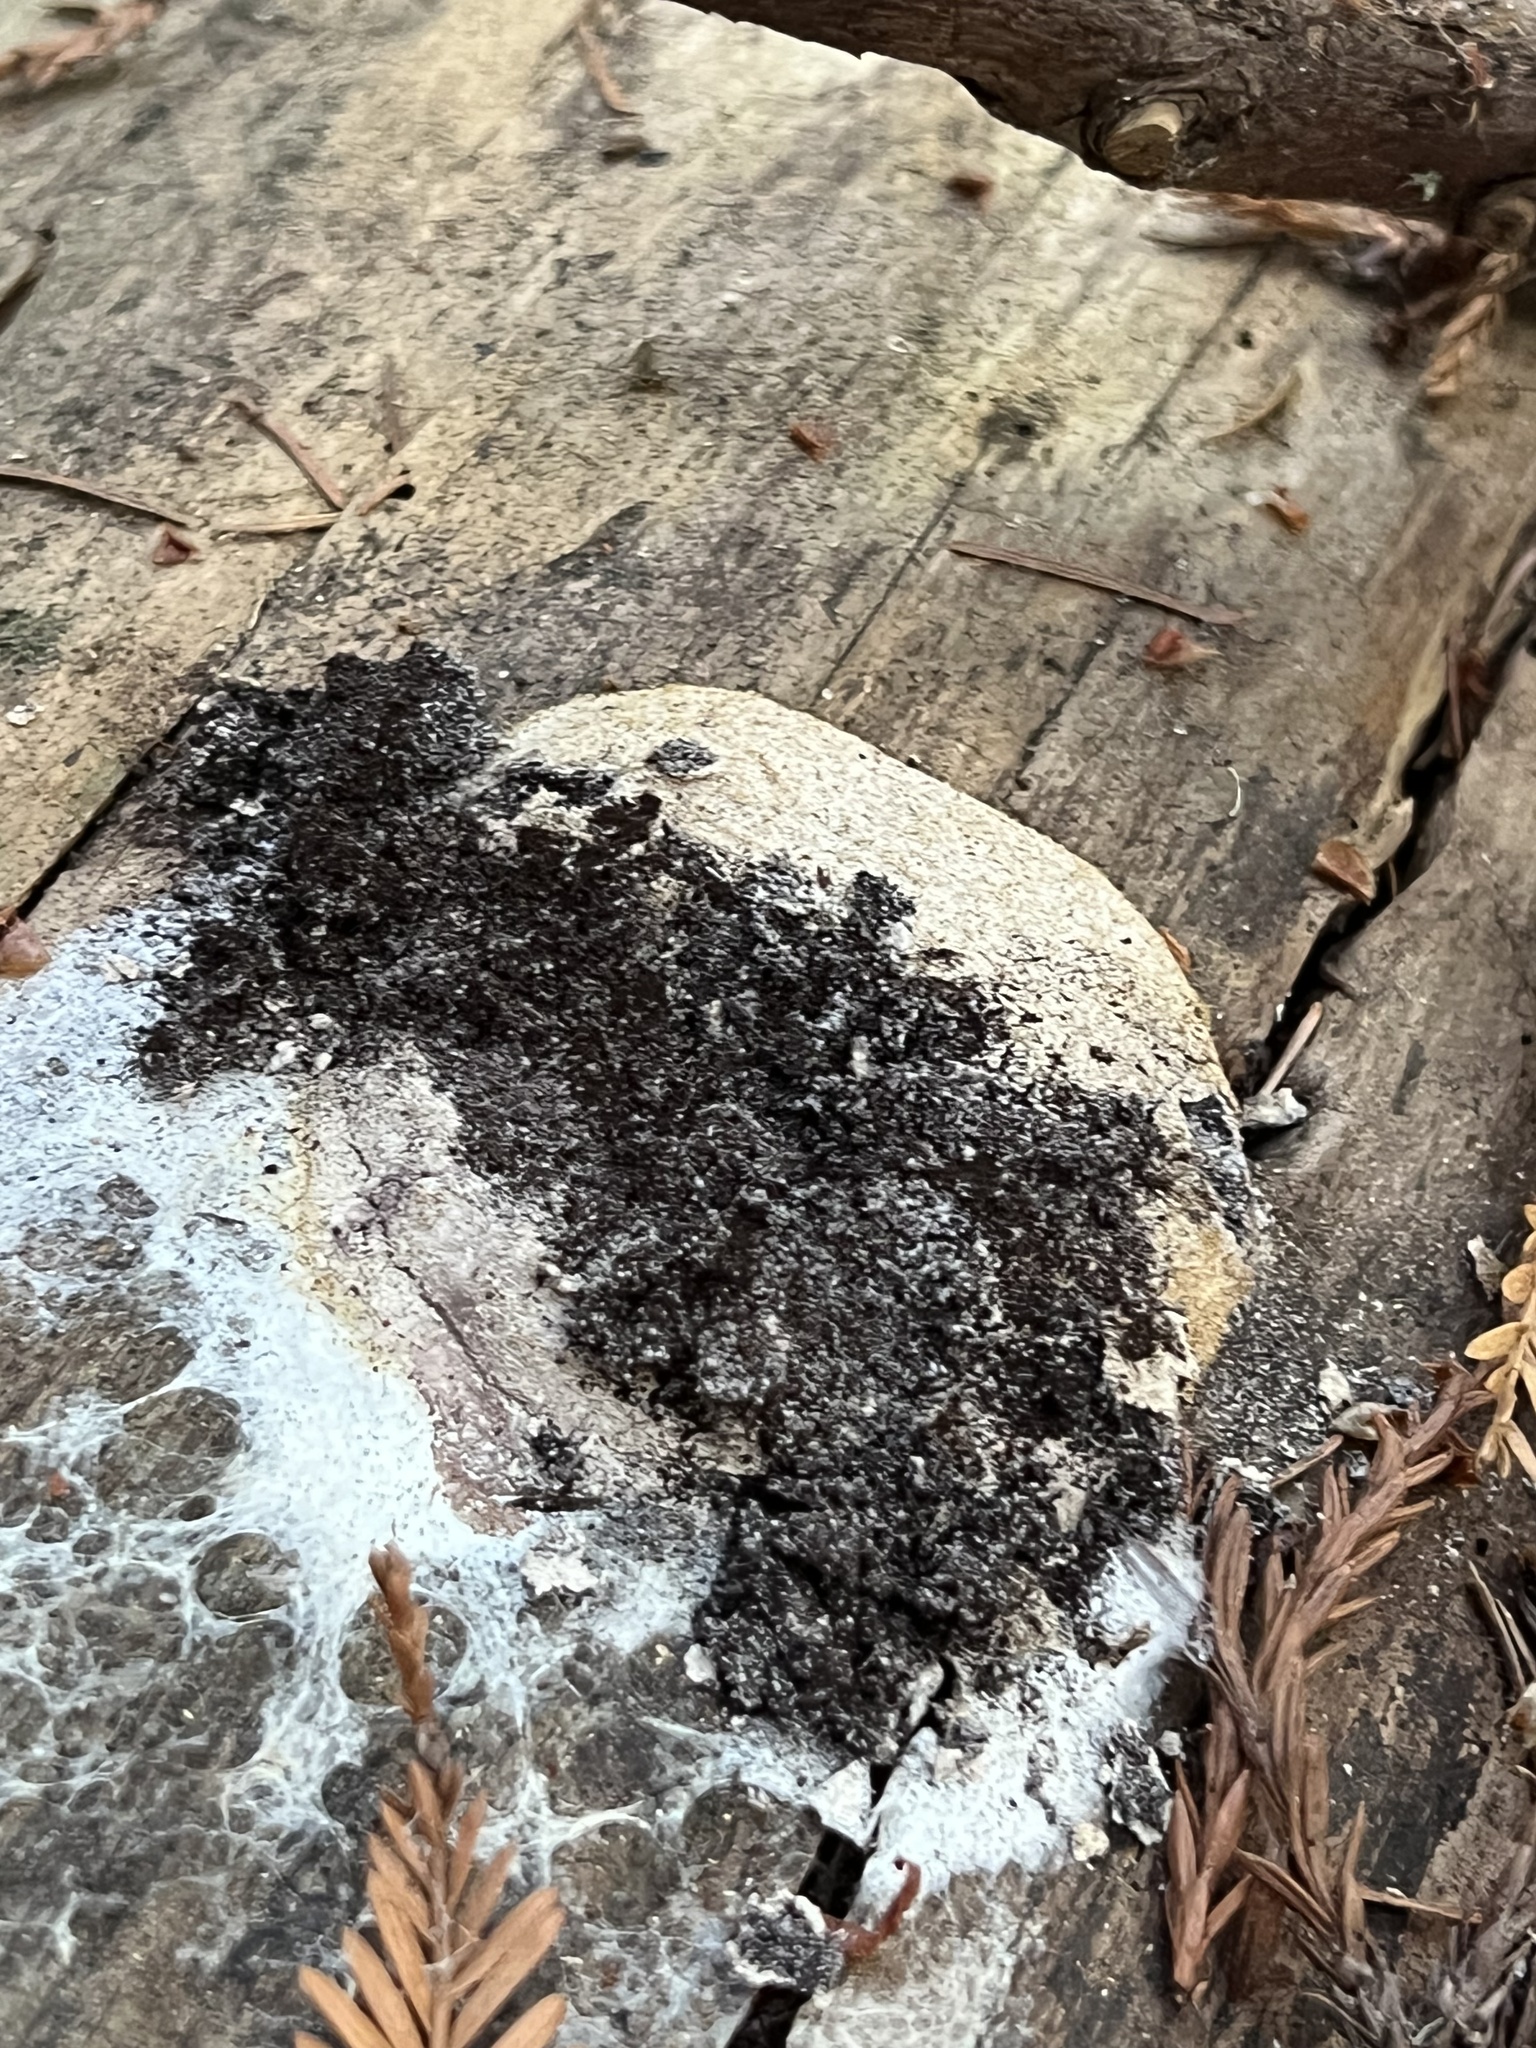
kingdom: Protozoa
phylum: Mycetozoa
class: Myxomycetes
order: Physarales
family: Physaraceae
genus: Fuligo
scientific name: Fuligo septica
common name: Dog vomit slime mold
